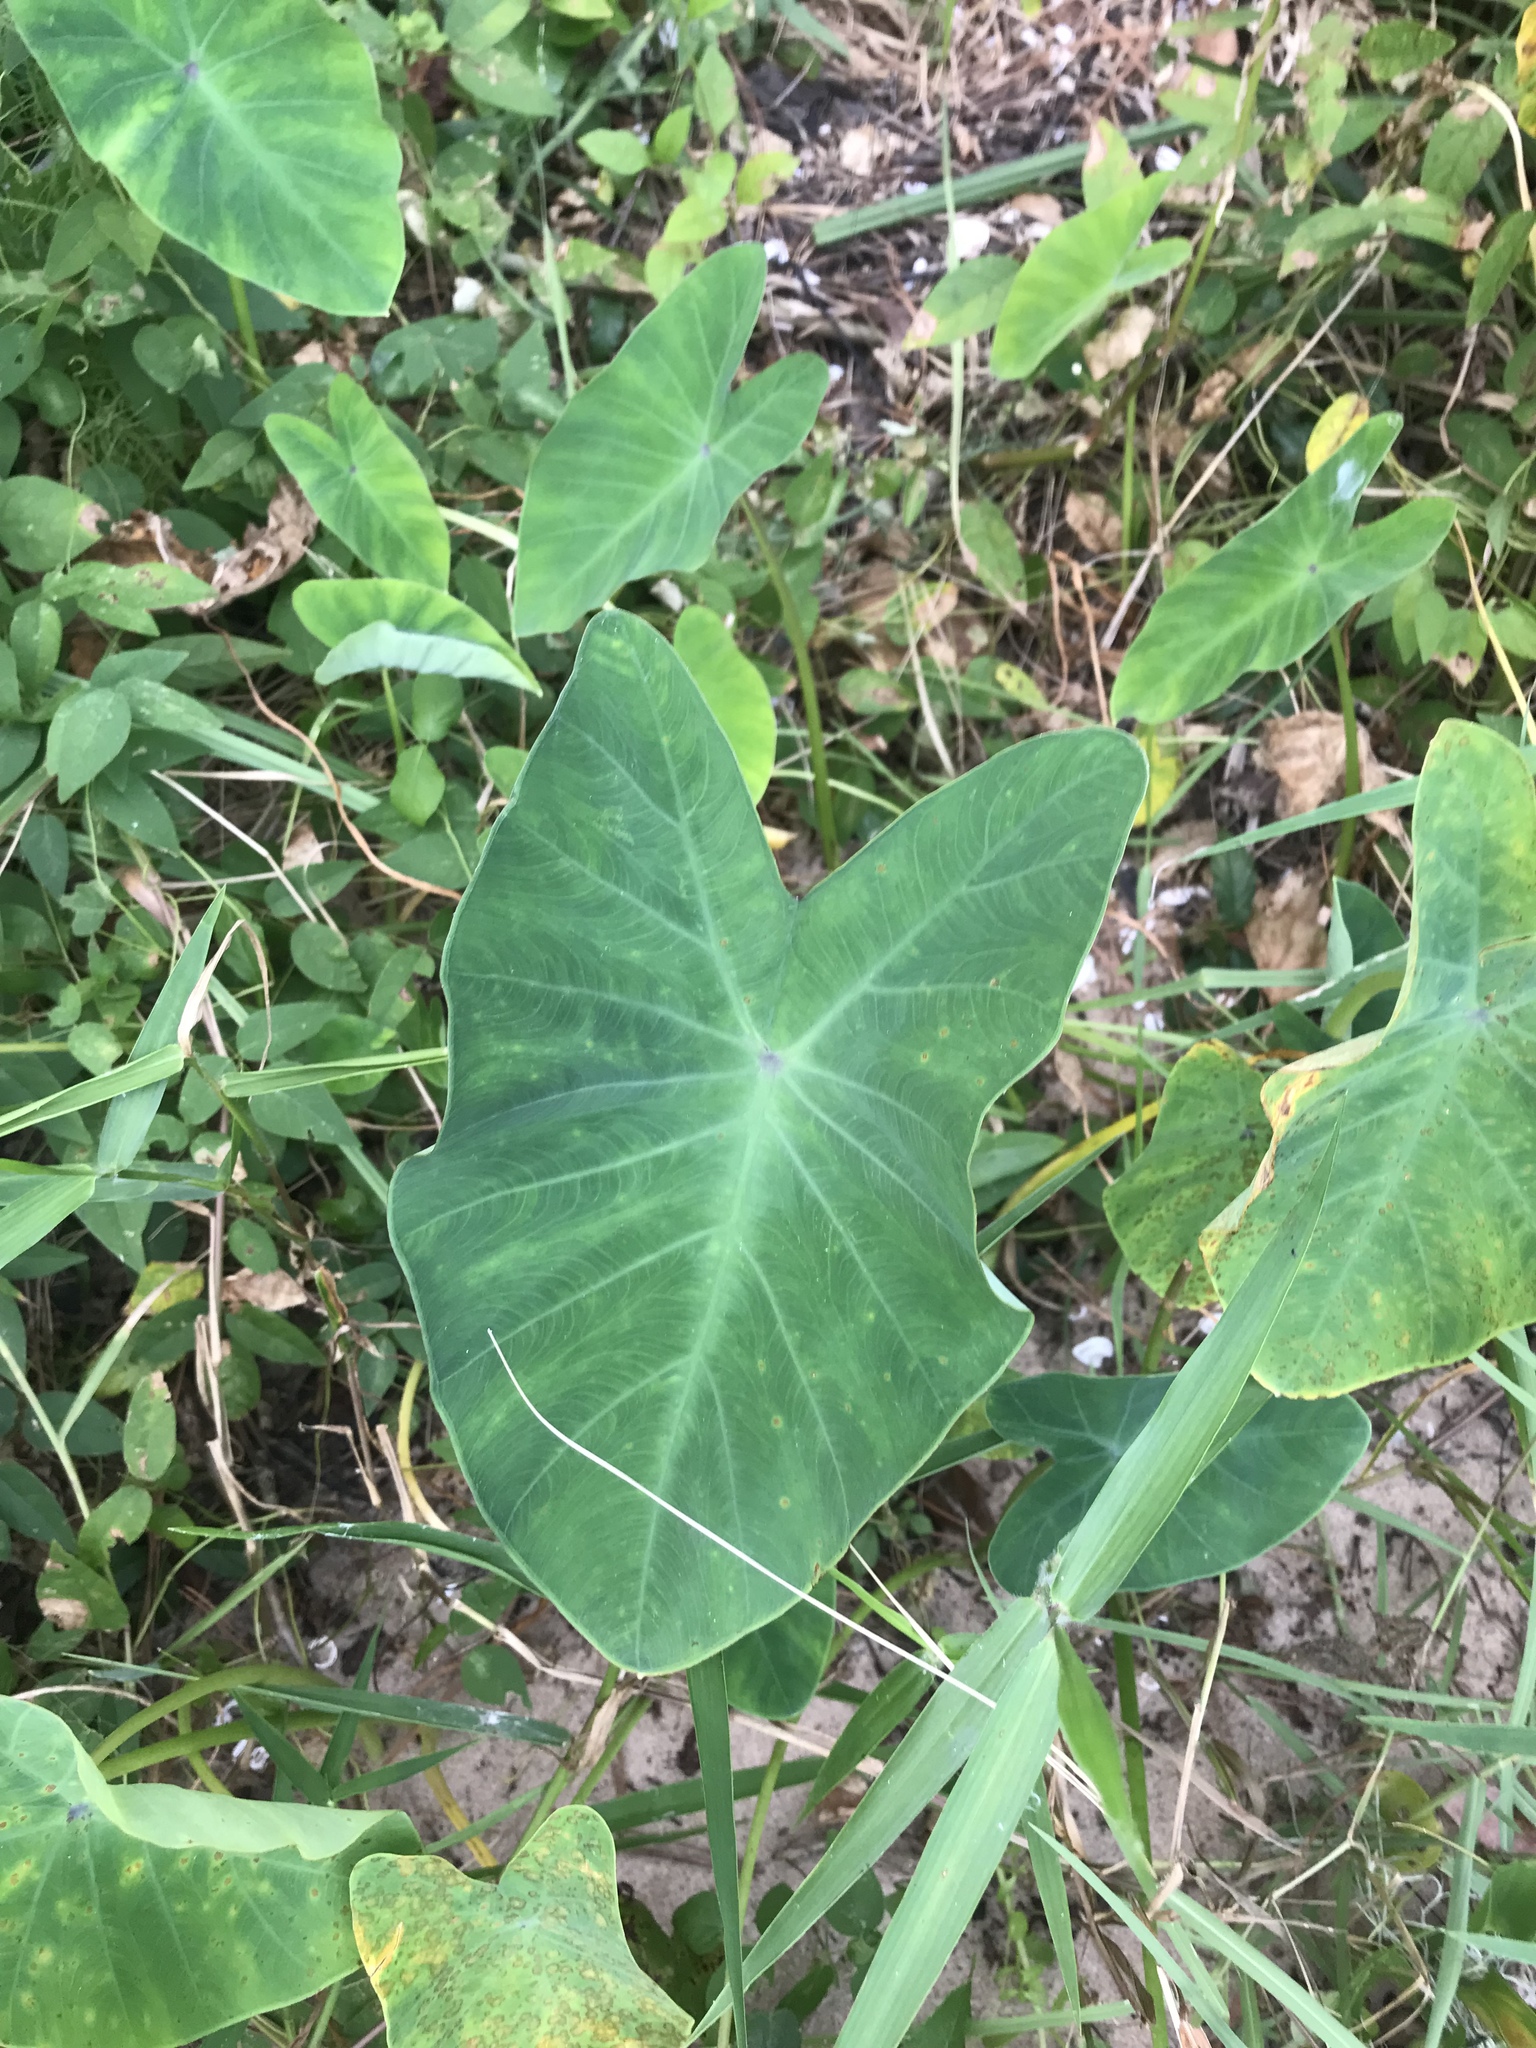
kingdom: Plantae
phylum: Tracheophyta
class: Liliopsida
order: Alismatales
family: Araceae
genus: Colocasia
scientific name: Colocasia esculenta
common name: Taro
